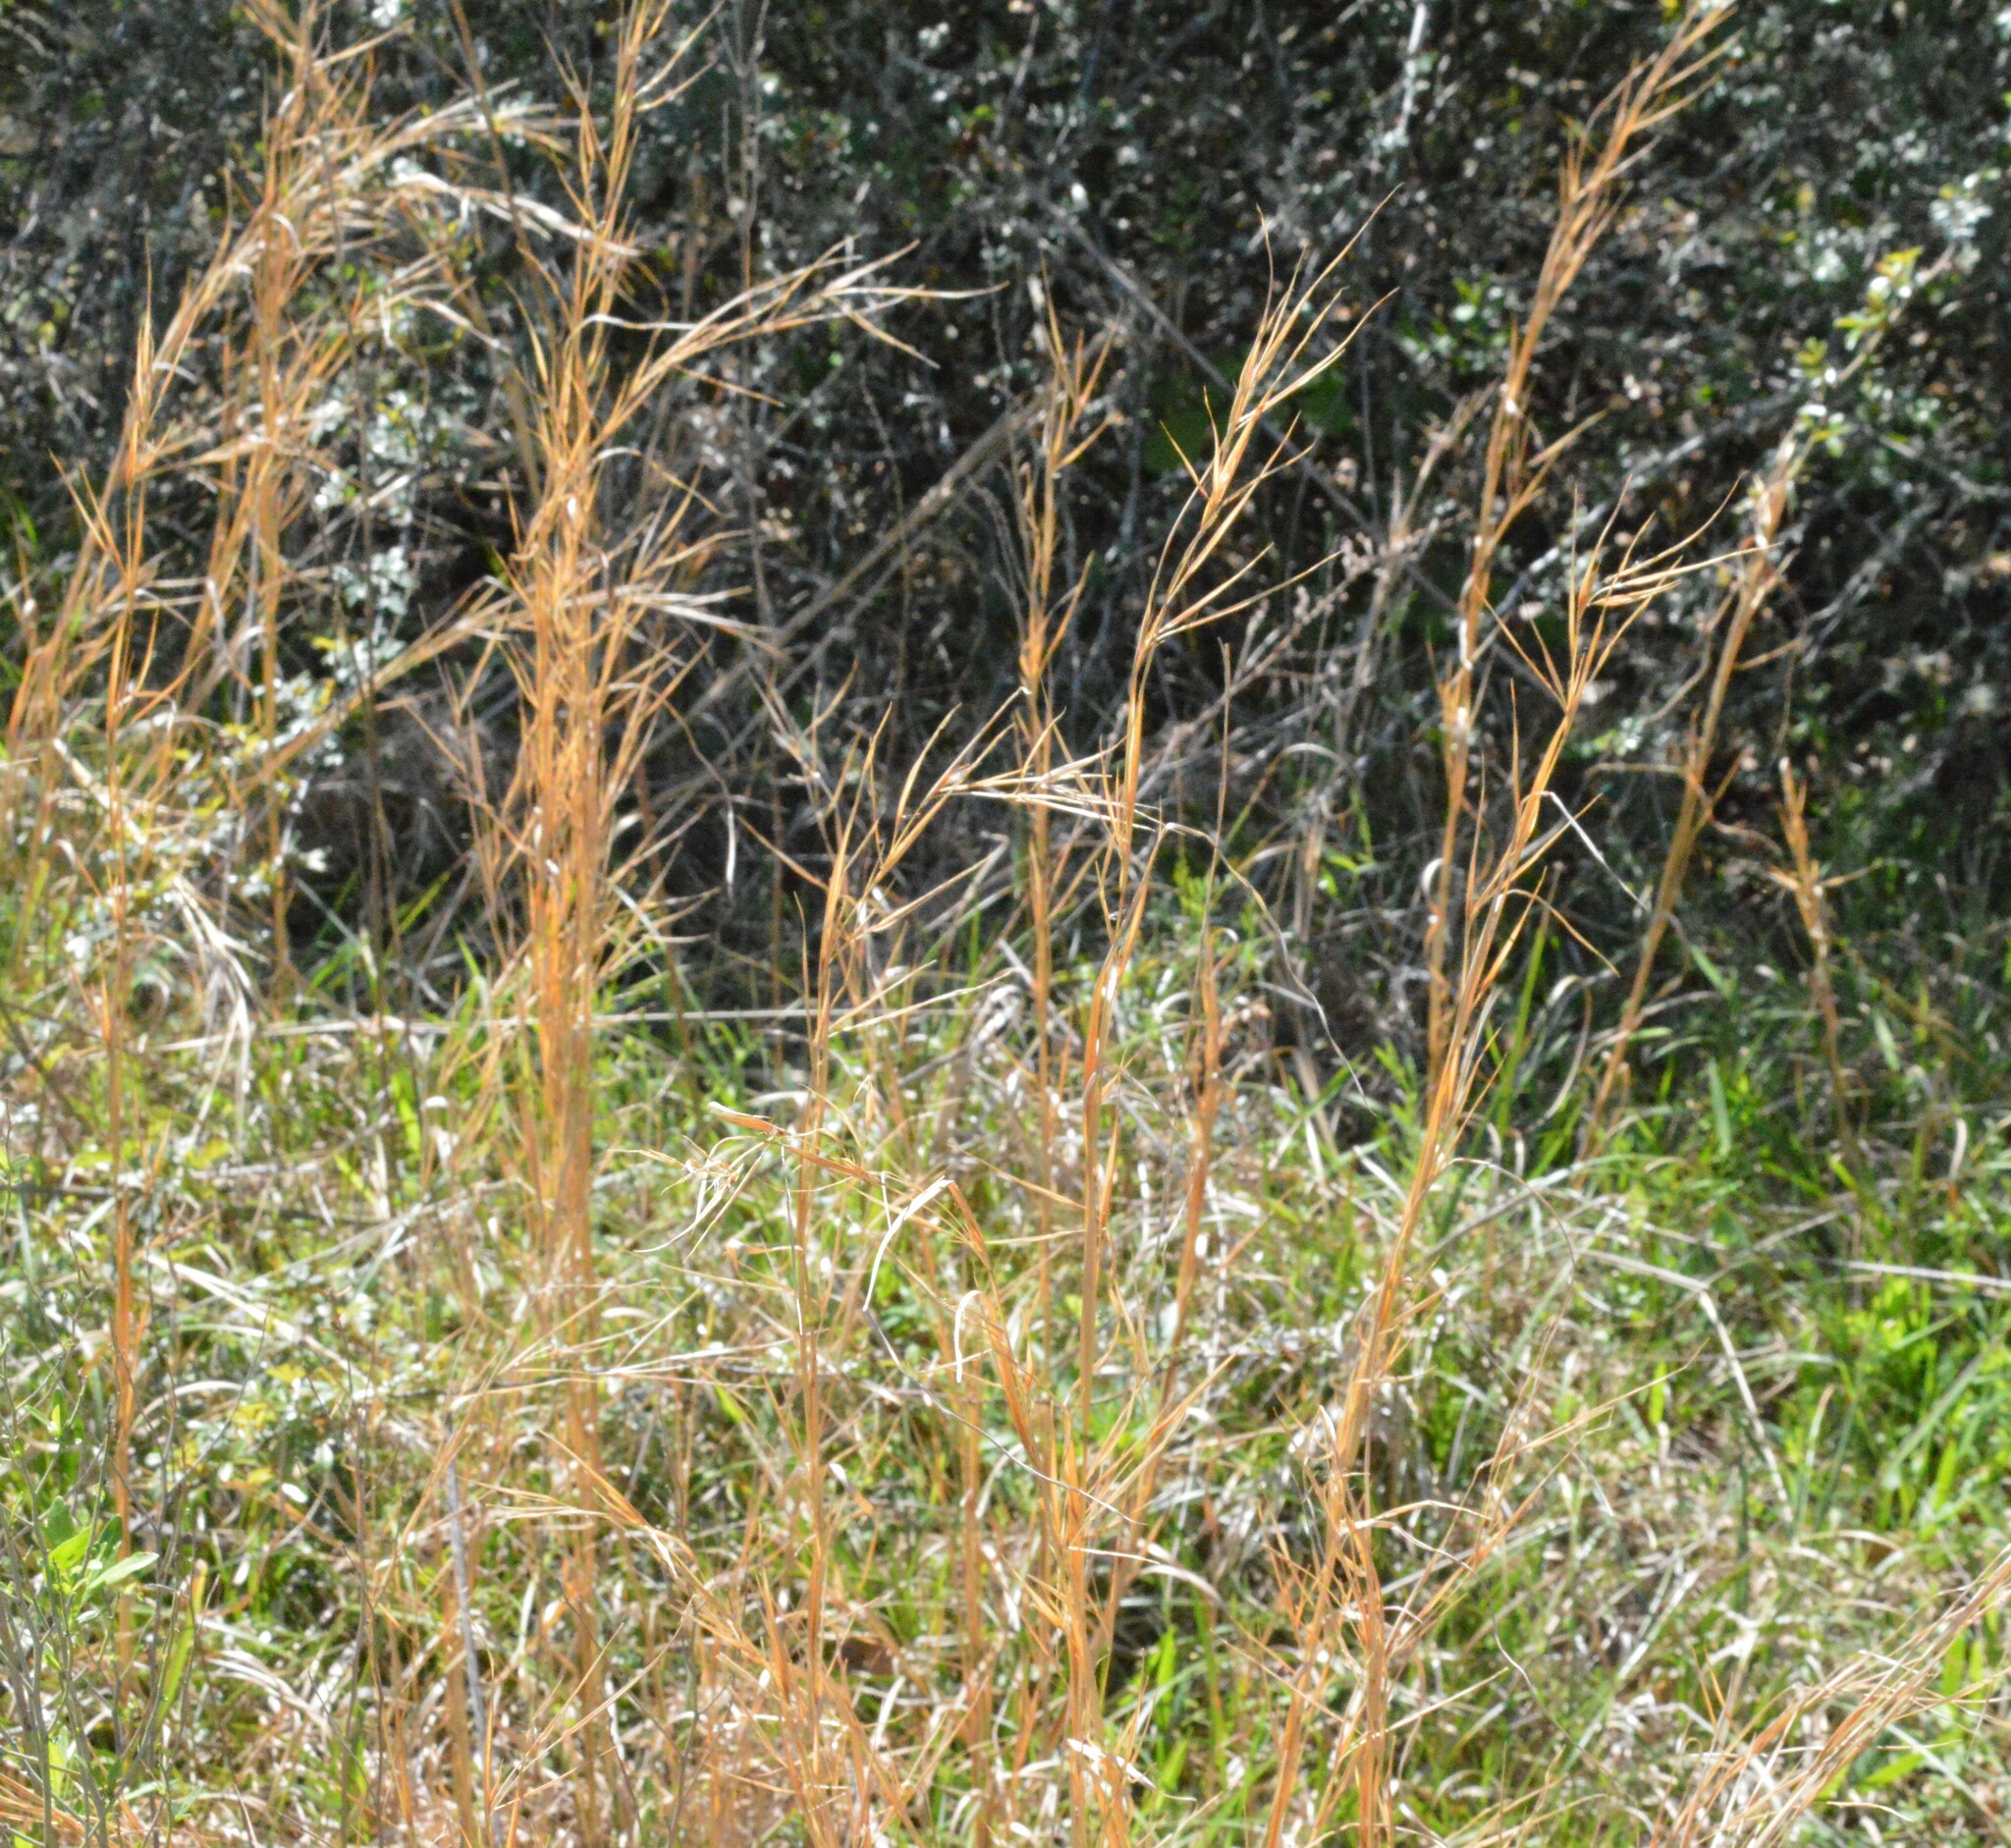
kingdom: Plantae
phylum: Tracheophyta
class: Liliopsida
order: Poales
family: Poaceae
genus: Andropogon
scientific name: Andropogon virginicus
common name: Broomsedge bluestem
